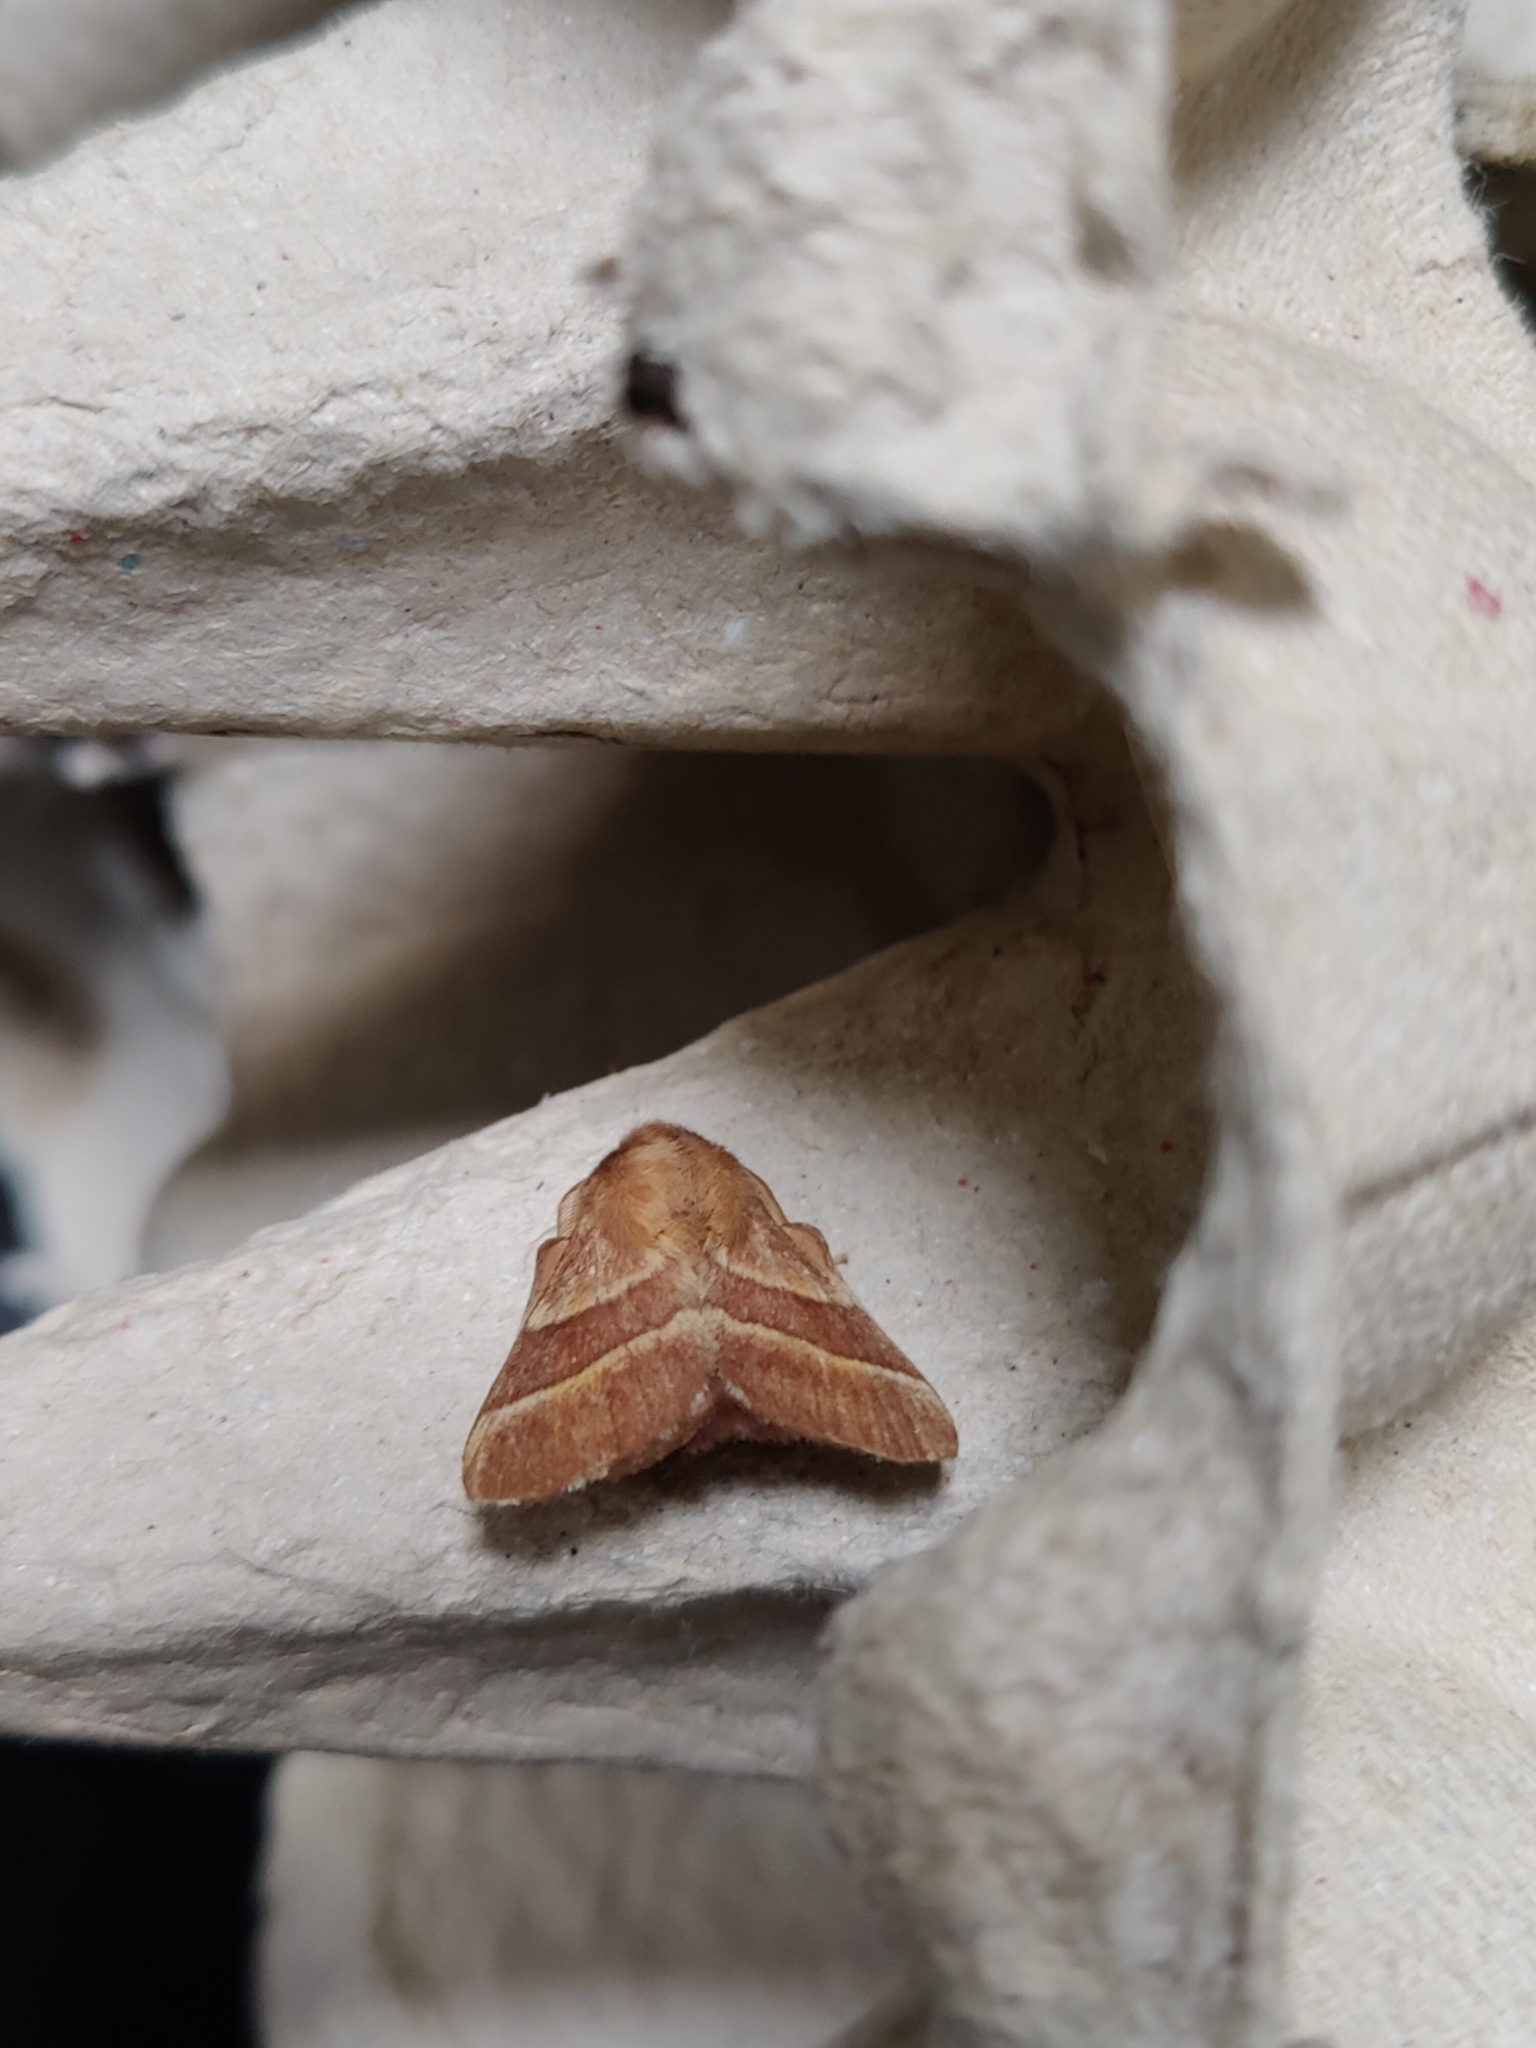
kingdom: Animalia
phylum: Arthropoda
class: Insecta
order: Lepidoptera
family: Lasiocampidae
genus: Malacosoma
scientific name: Malacosoma neustria
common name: The lackey
